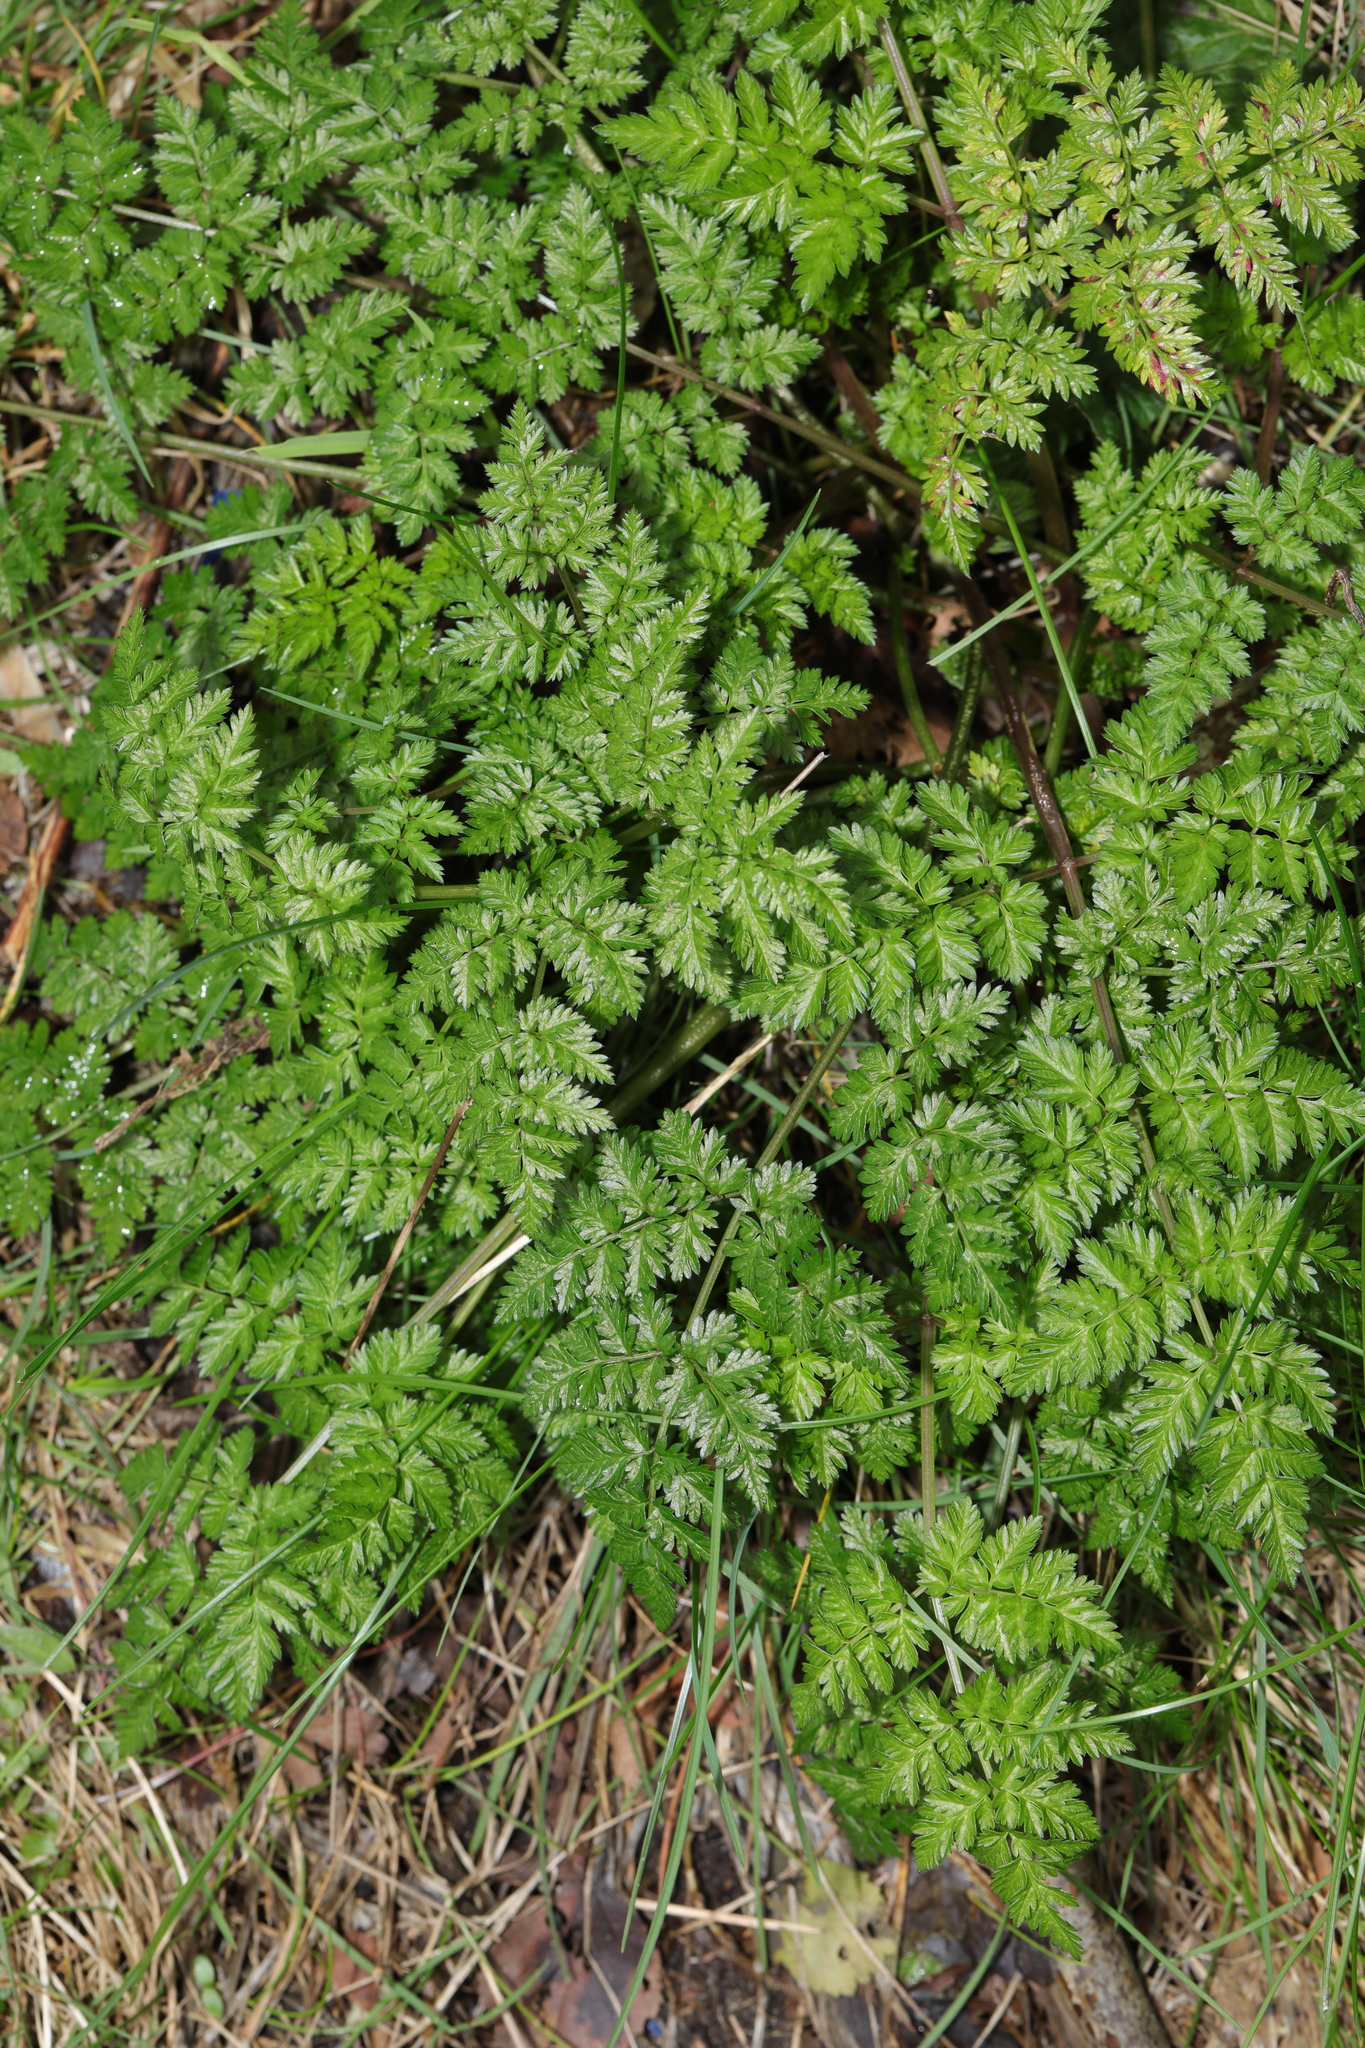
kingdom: Plantae
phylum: Tracheophyta
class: Magnoliopsida
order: Apiales
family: Apiaceae
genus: Anthriscus
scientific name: Anthriscus sylvestris
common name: Cow parsley
